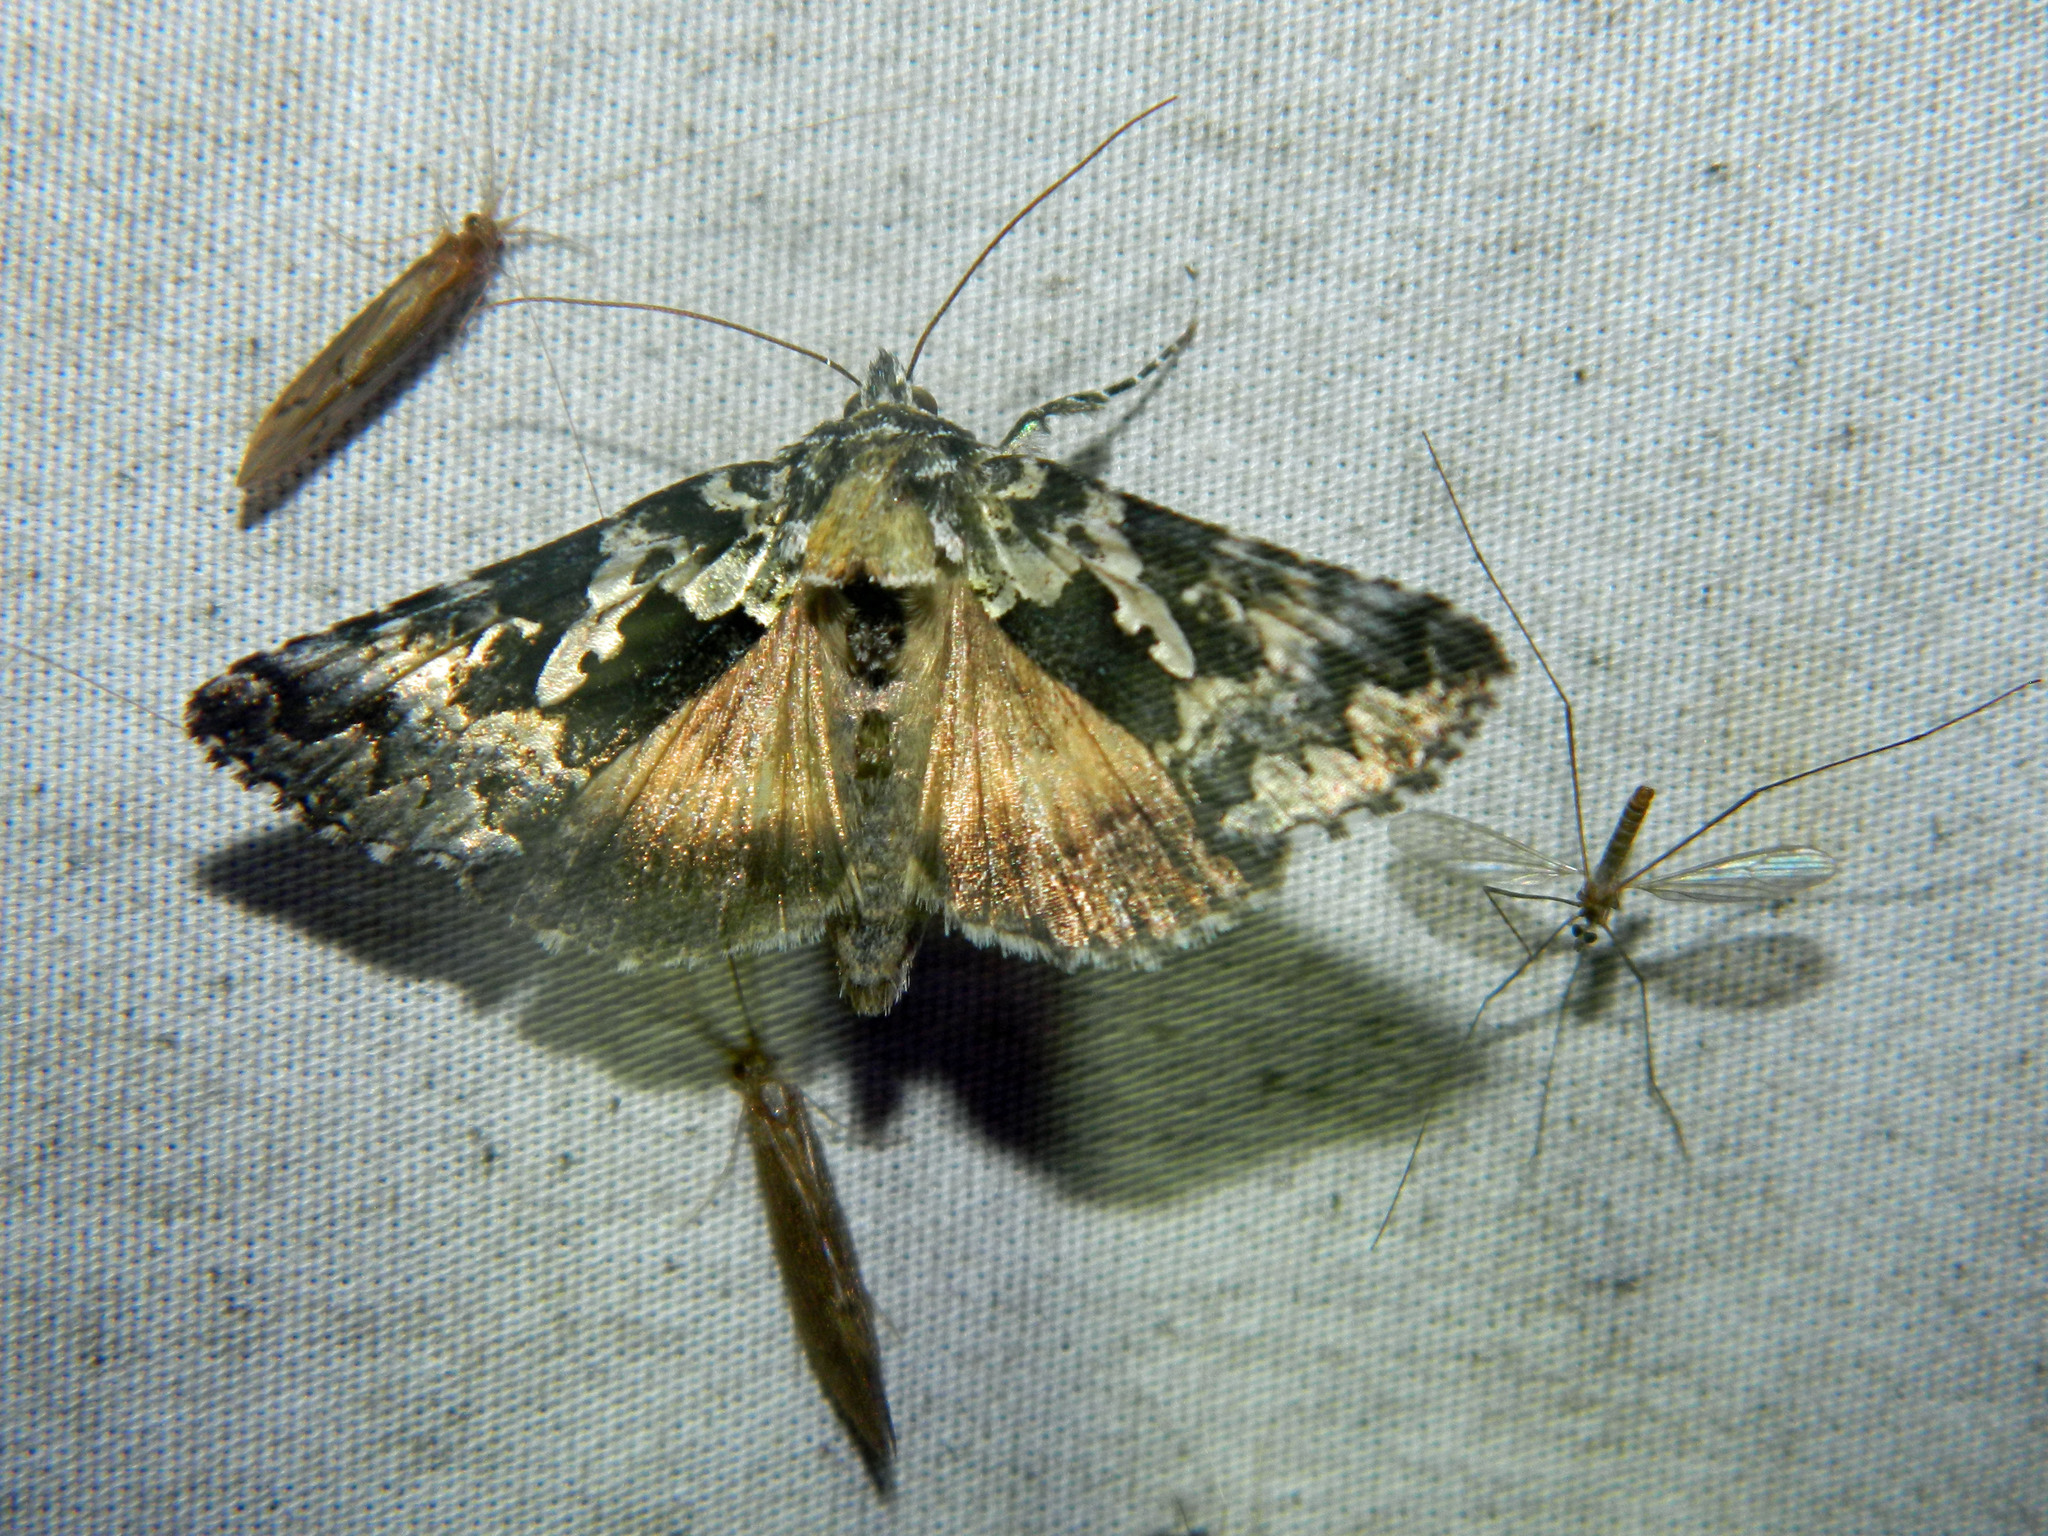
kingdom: Animalia
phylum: Arthropoda
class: Insecta
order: Lepidoptera
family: Noctuidae
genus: Syngrapha
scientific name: Syngrapha rectangula
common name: Angulated cutworm
